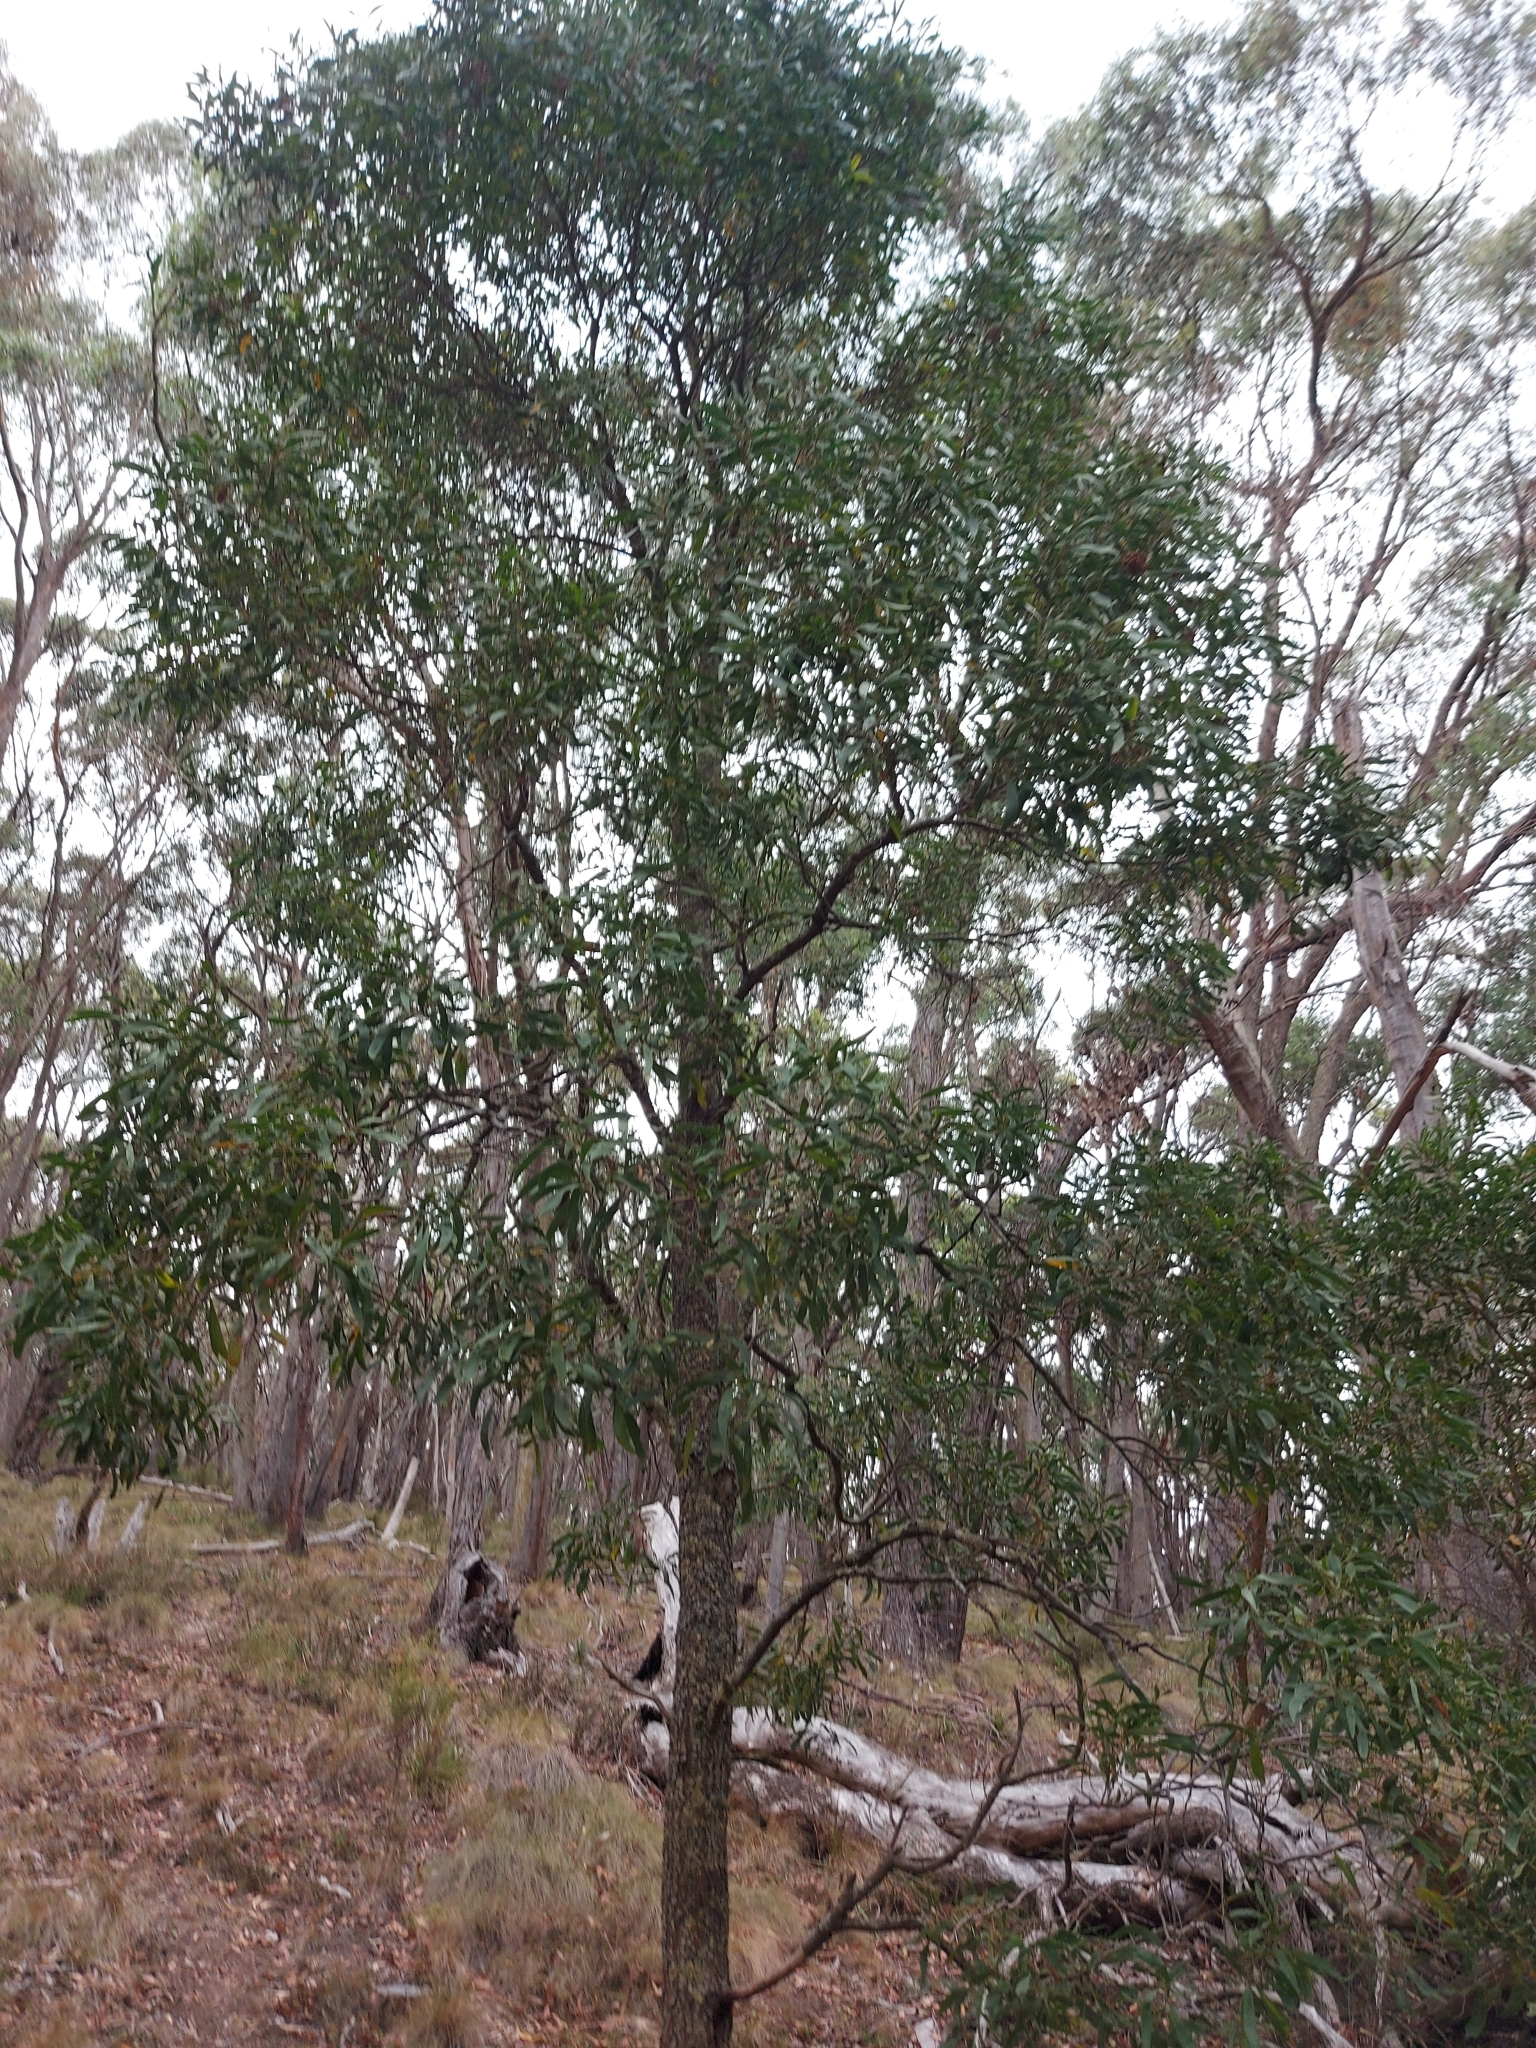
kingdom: Plantae
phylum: Tracheophyta
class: Magnoliopsida
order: Fabales
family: Fabaceae
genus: Acacia
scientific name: Acacia melanoxylon
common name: Blackwood
